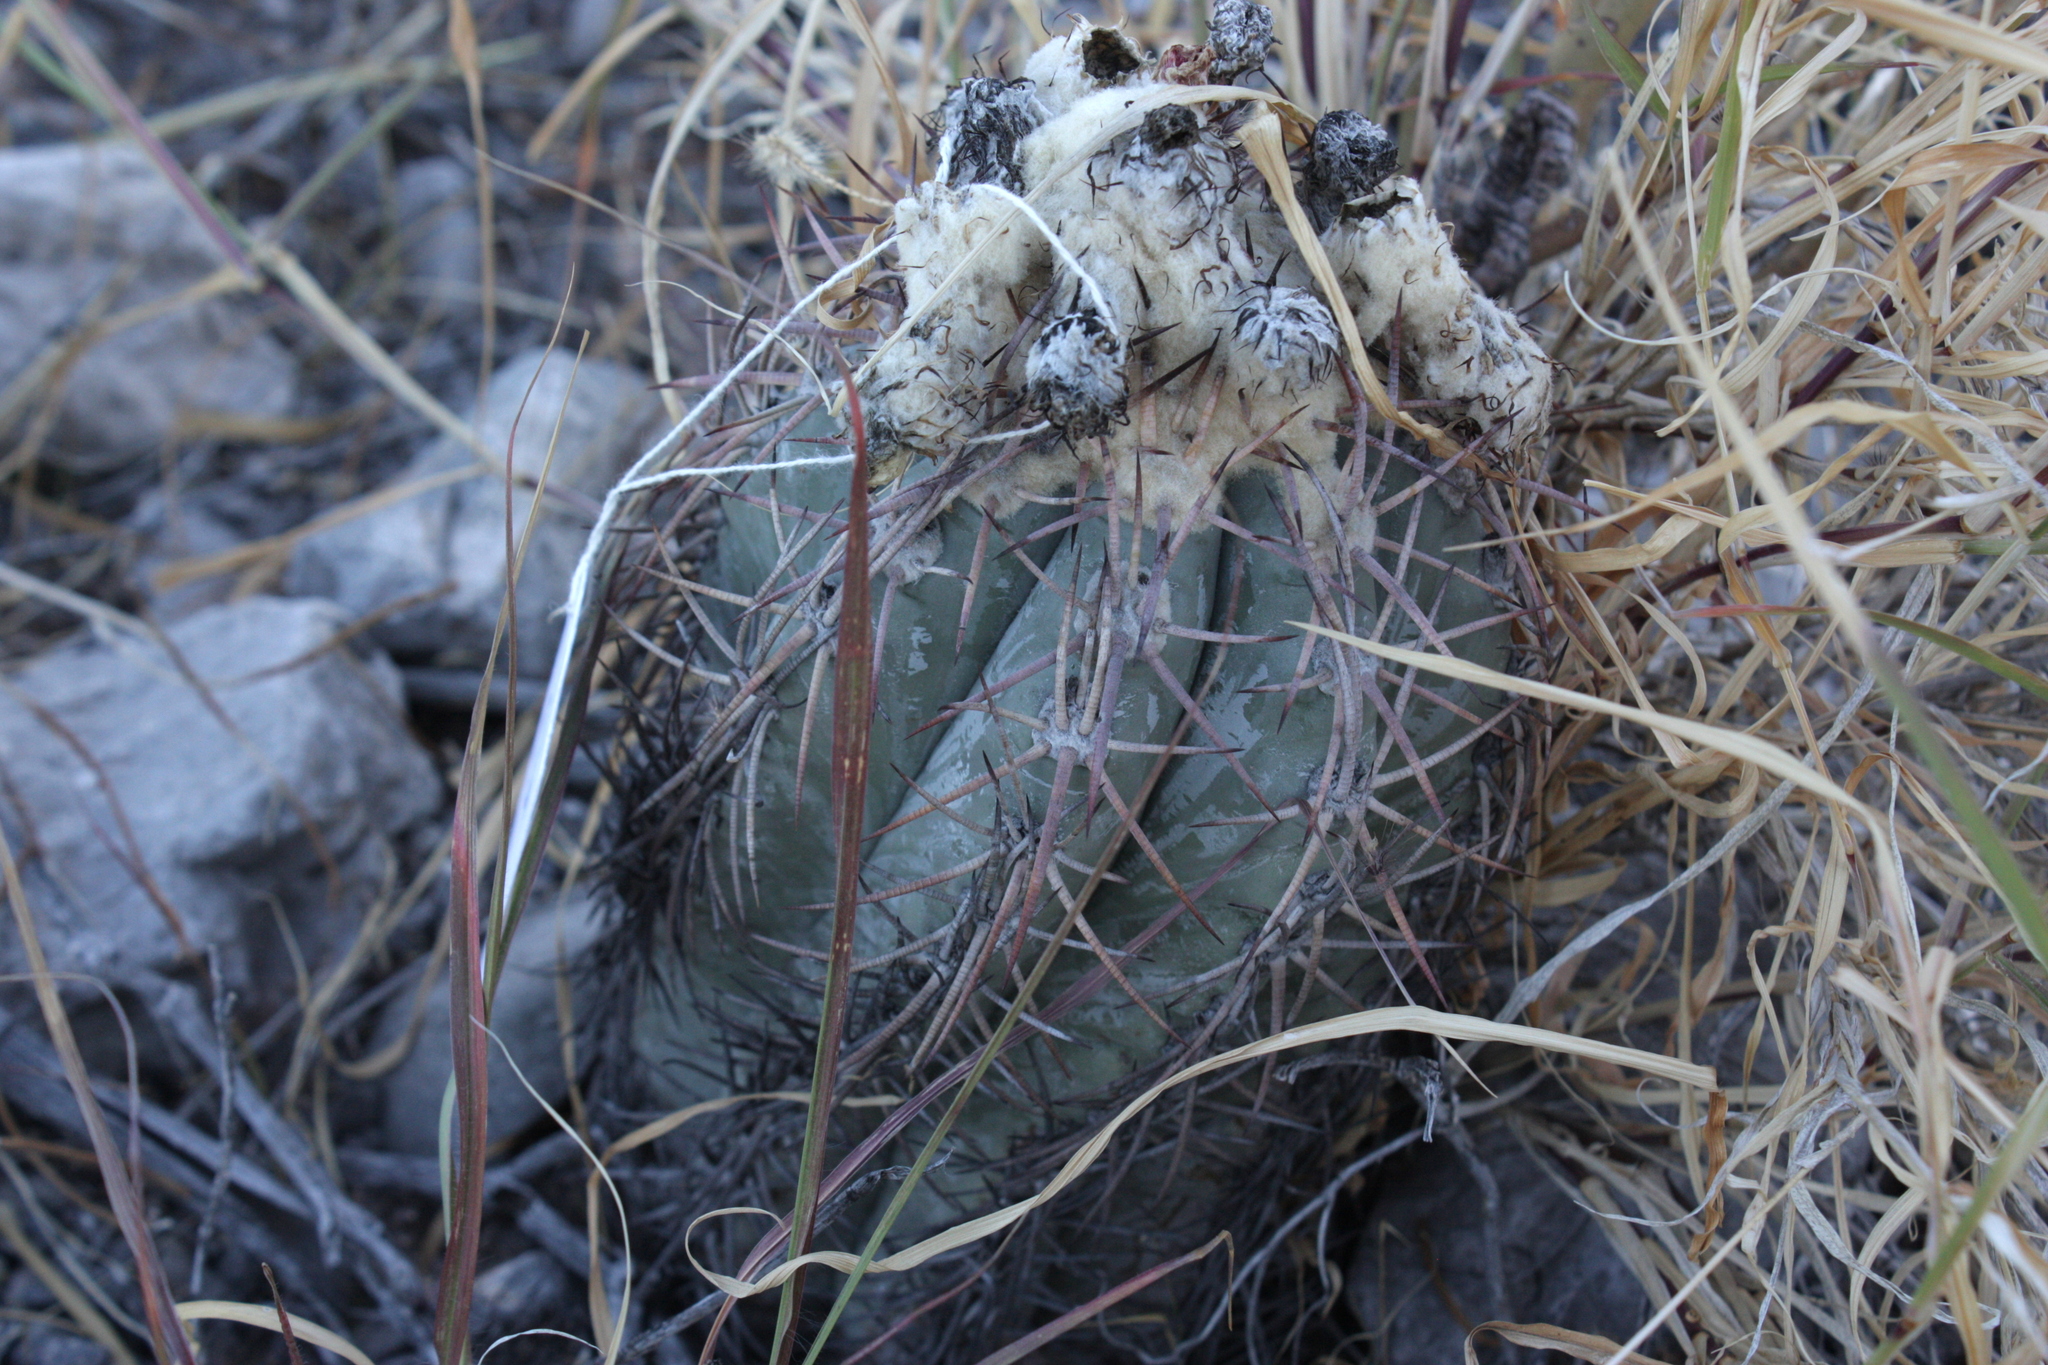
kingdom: Plantae
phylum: Tracheophyta
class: Magnoliopsida
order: Caryophyllales
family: Cactaceae
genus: Echinocactus
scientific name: Echinocactus horizonthalonius
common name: Devilshead
